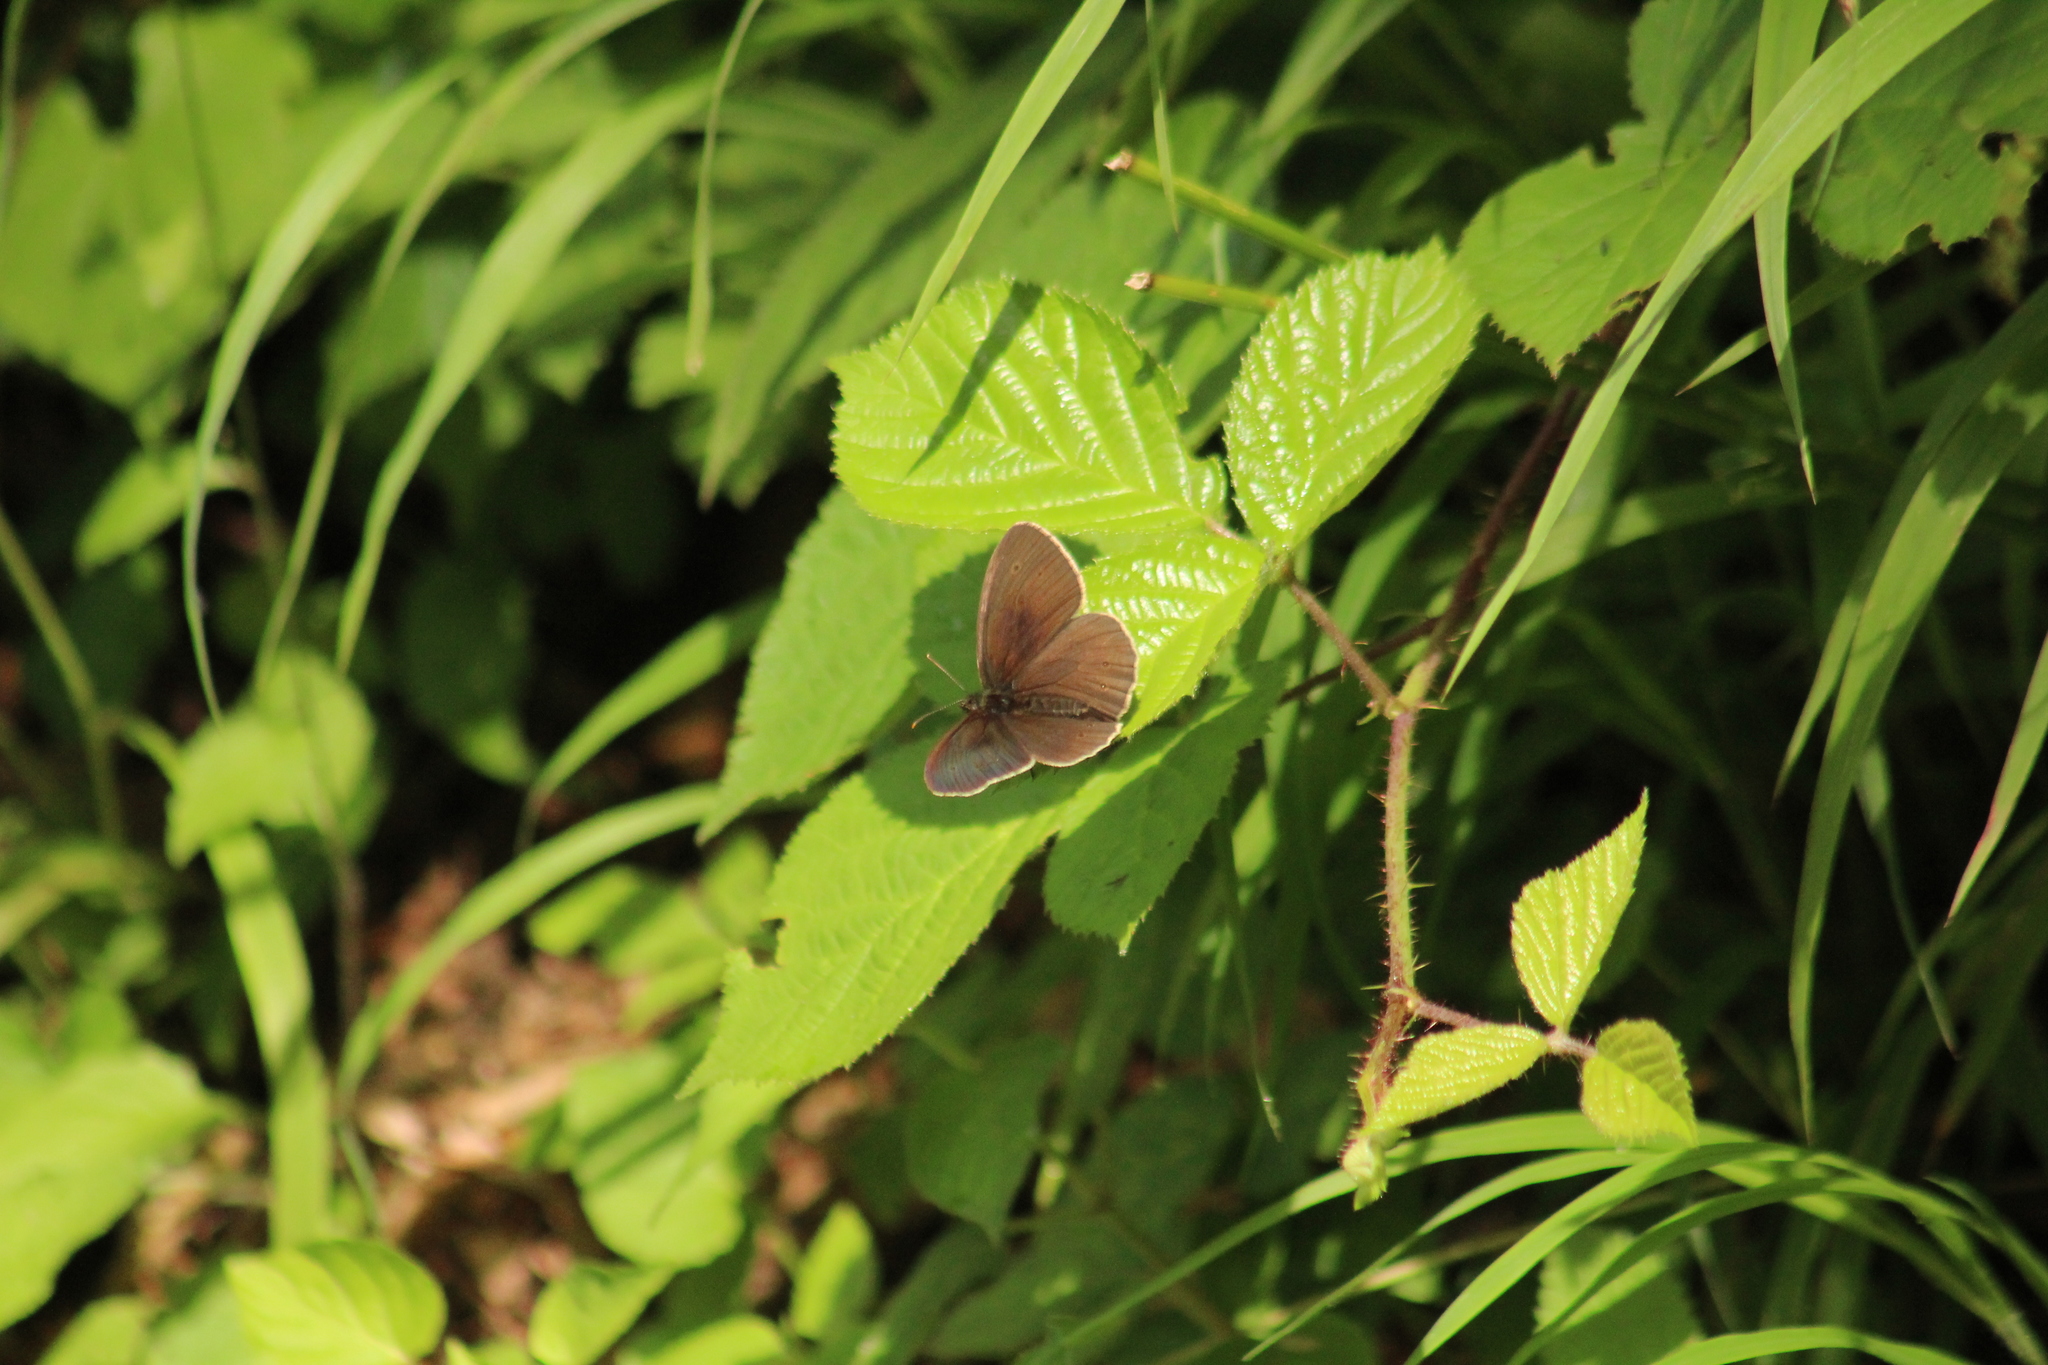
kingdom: Animalia
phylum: Arthropoda
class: Insecta
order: Lepidoptera
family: Nymphalidae
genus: Aphantopus
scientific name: Aphantopus hyperantus
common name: Ringlet
